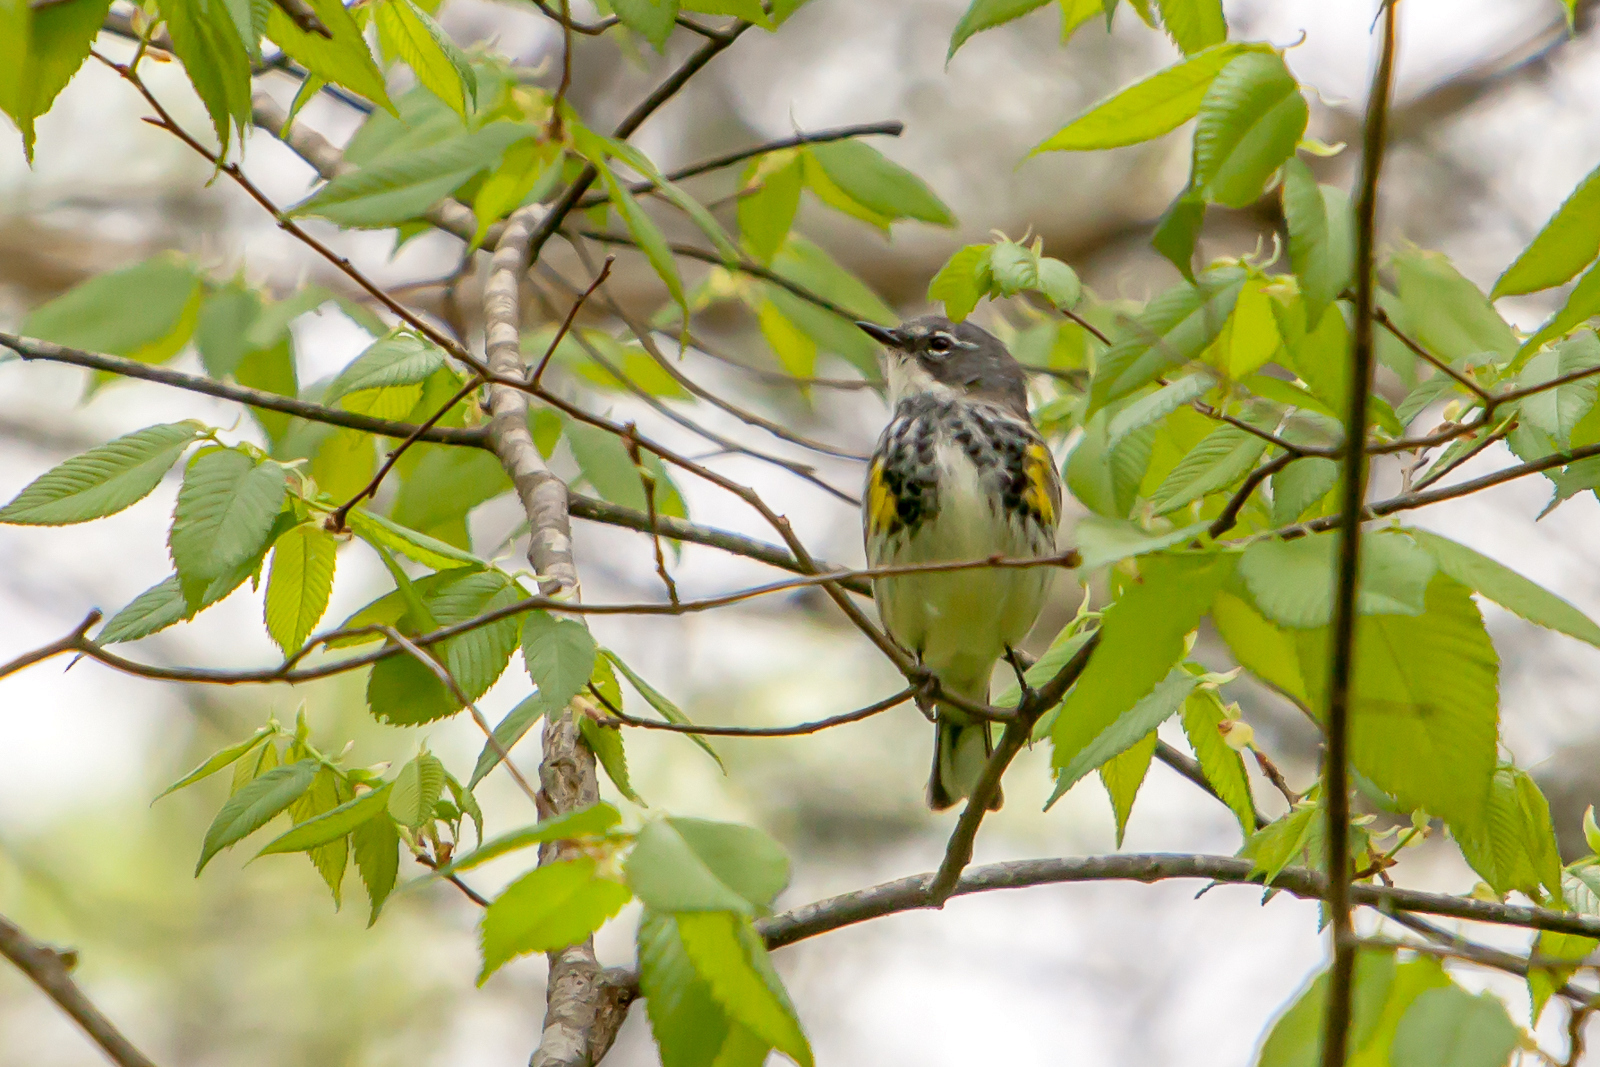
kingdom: Animalia
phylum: Chordata
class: Aves
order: Passeriformes
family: Parulidae
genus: Setophaga
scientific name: Setophaga coronata
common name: Myrtle warbler
